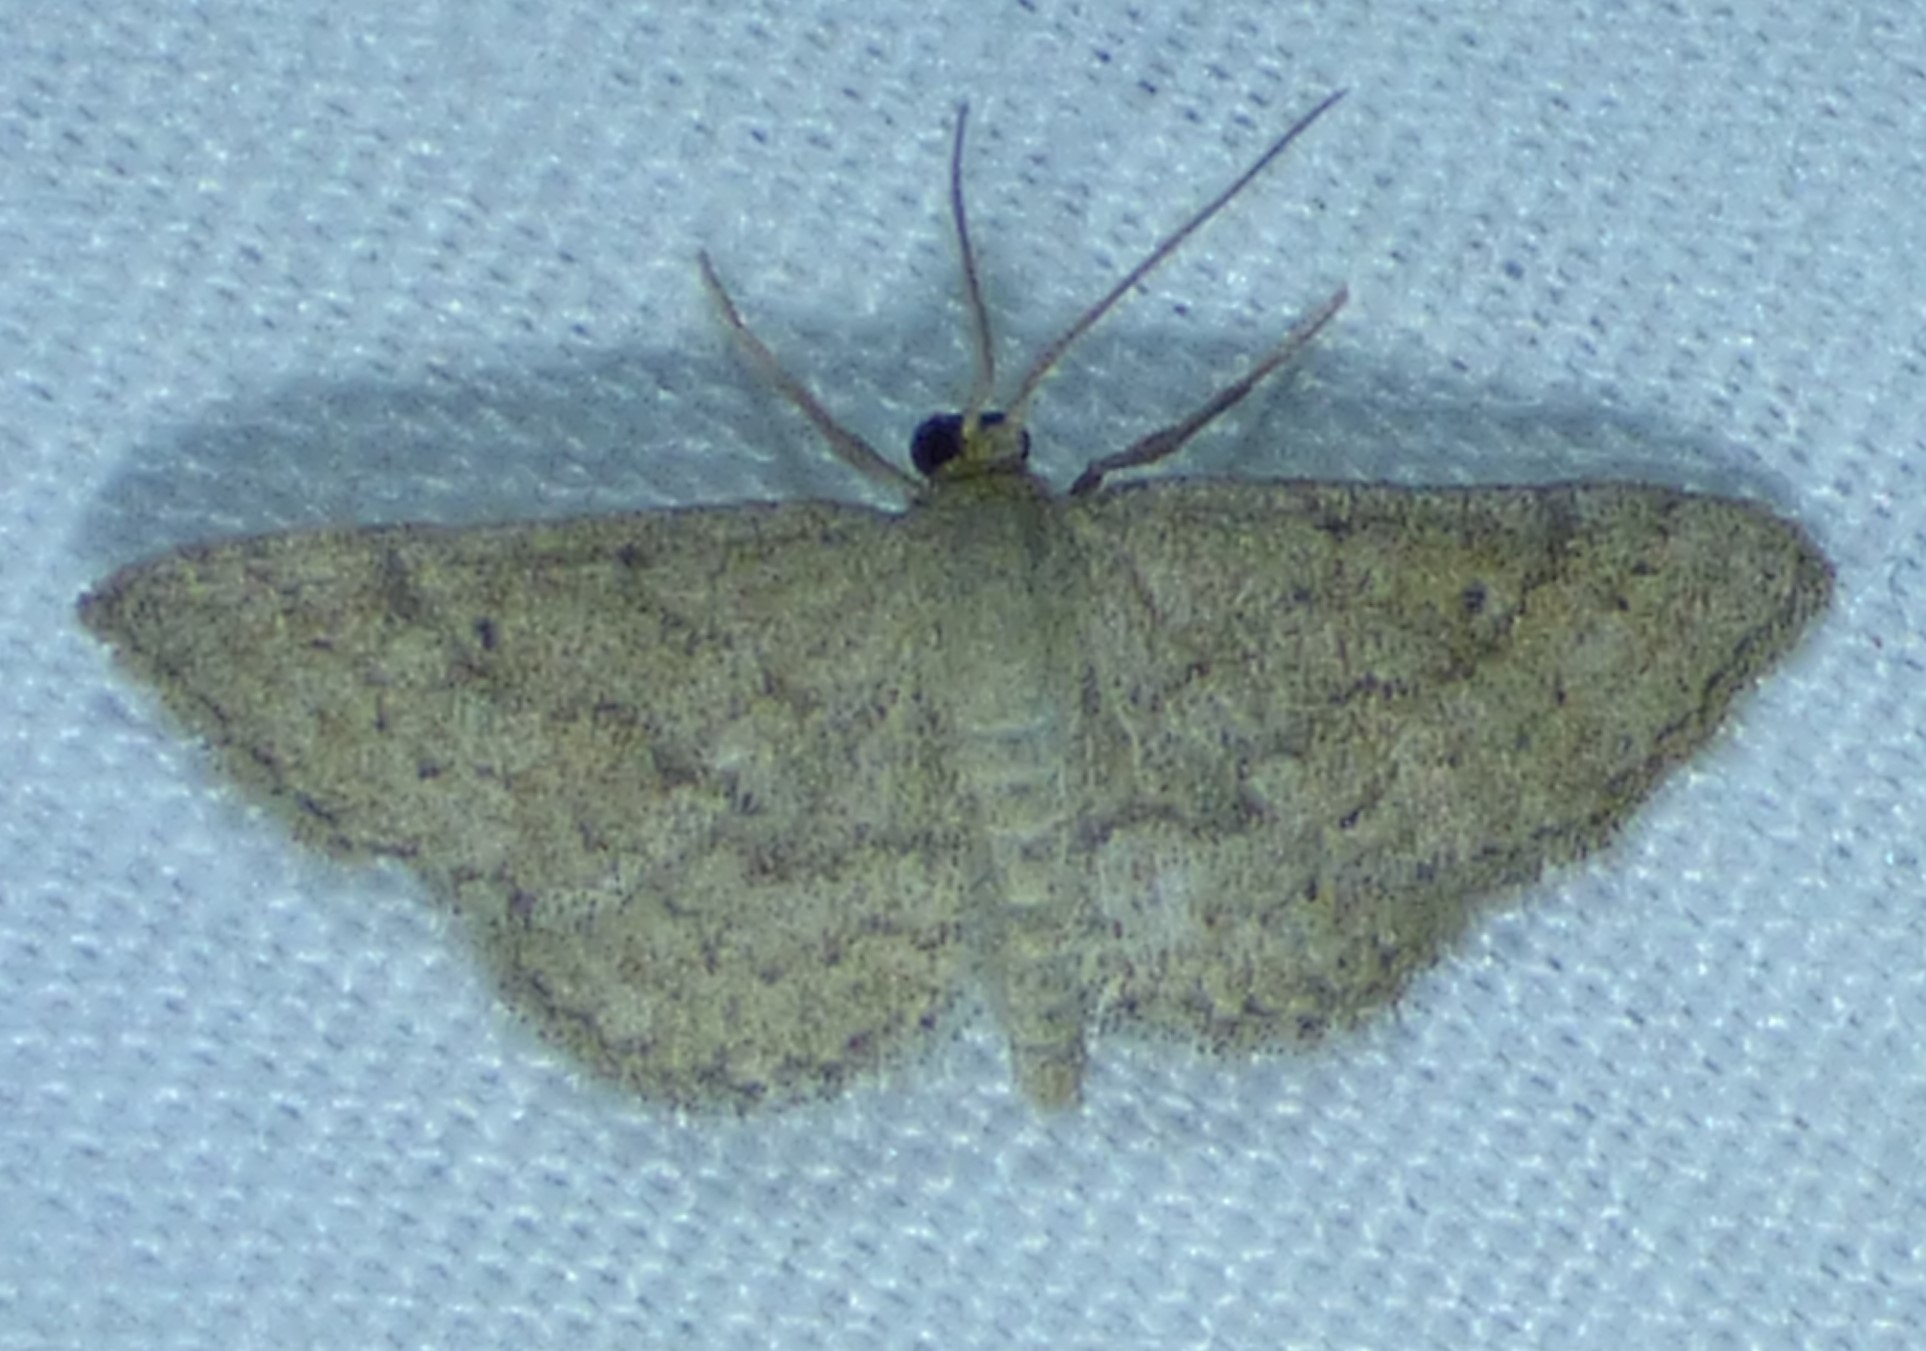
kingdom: Animalia
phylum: Arthropoda
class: Insecta
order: Lepidoptera
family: Geometridae
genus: Lobocleta
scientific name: Lobocleta ossularia
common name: Drab brown wave
